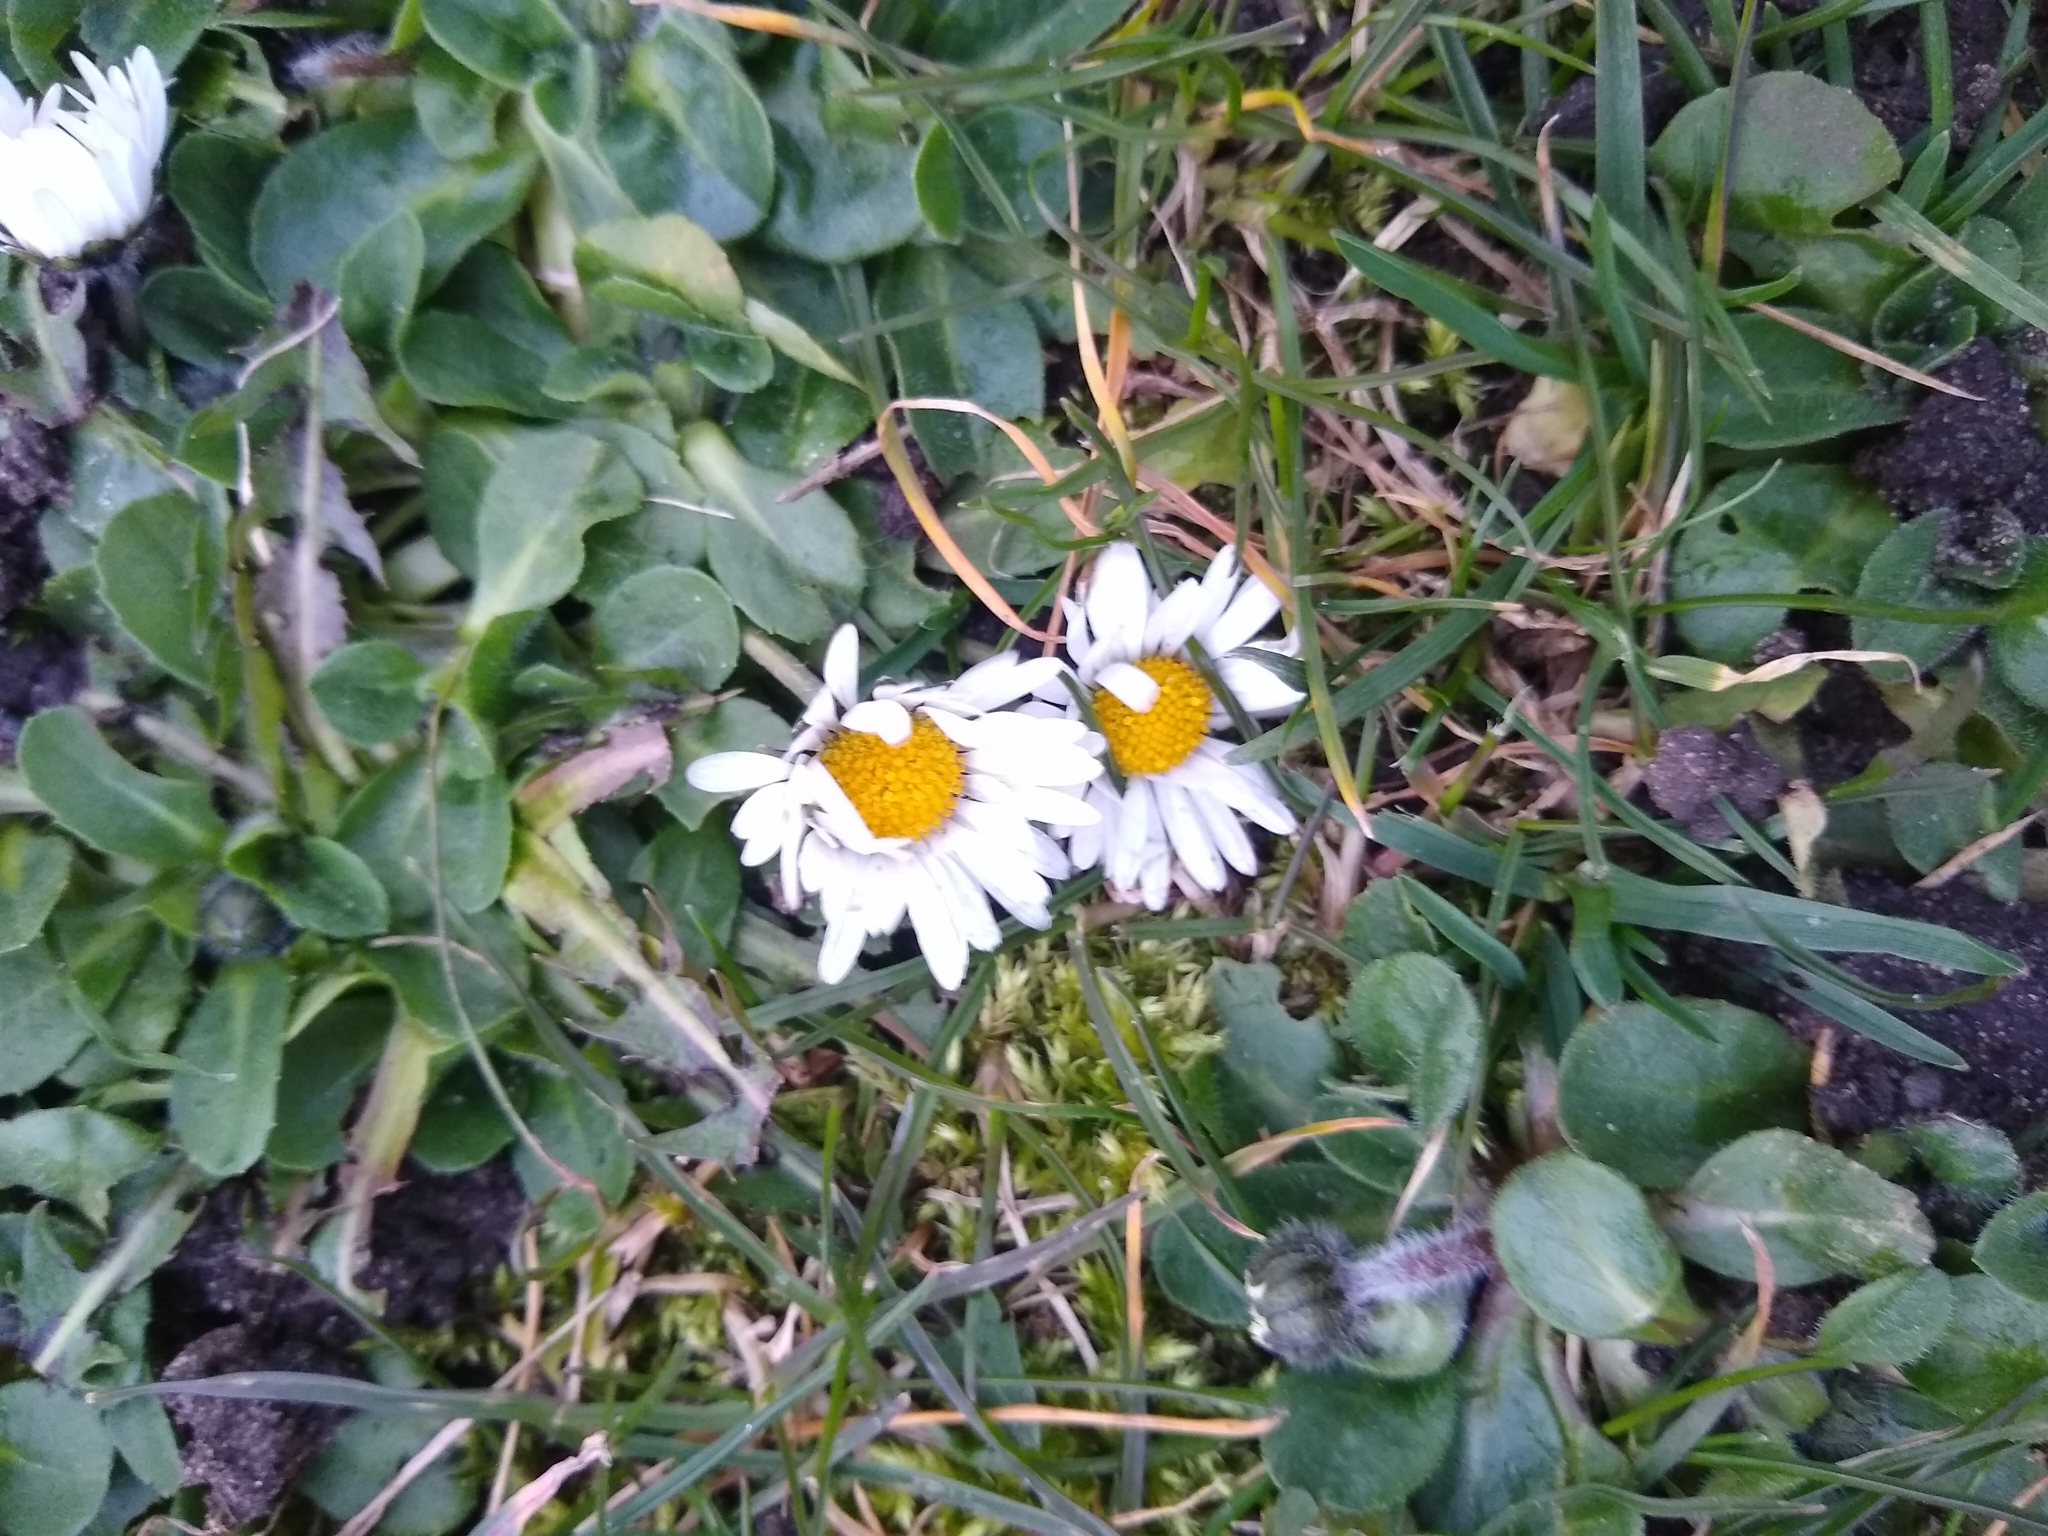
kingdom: Plantae
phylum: Tracheophyta
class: Magnoliopsida
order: Asterales
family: Asteraceae
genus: Bellis
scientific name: Bellis perennis
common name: Lawndaisy
